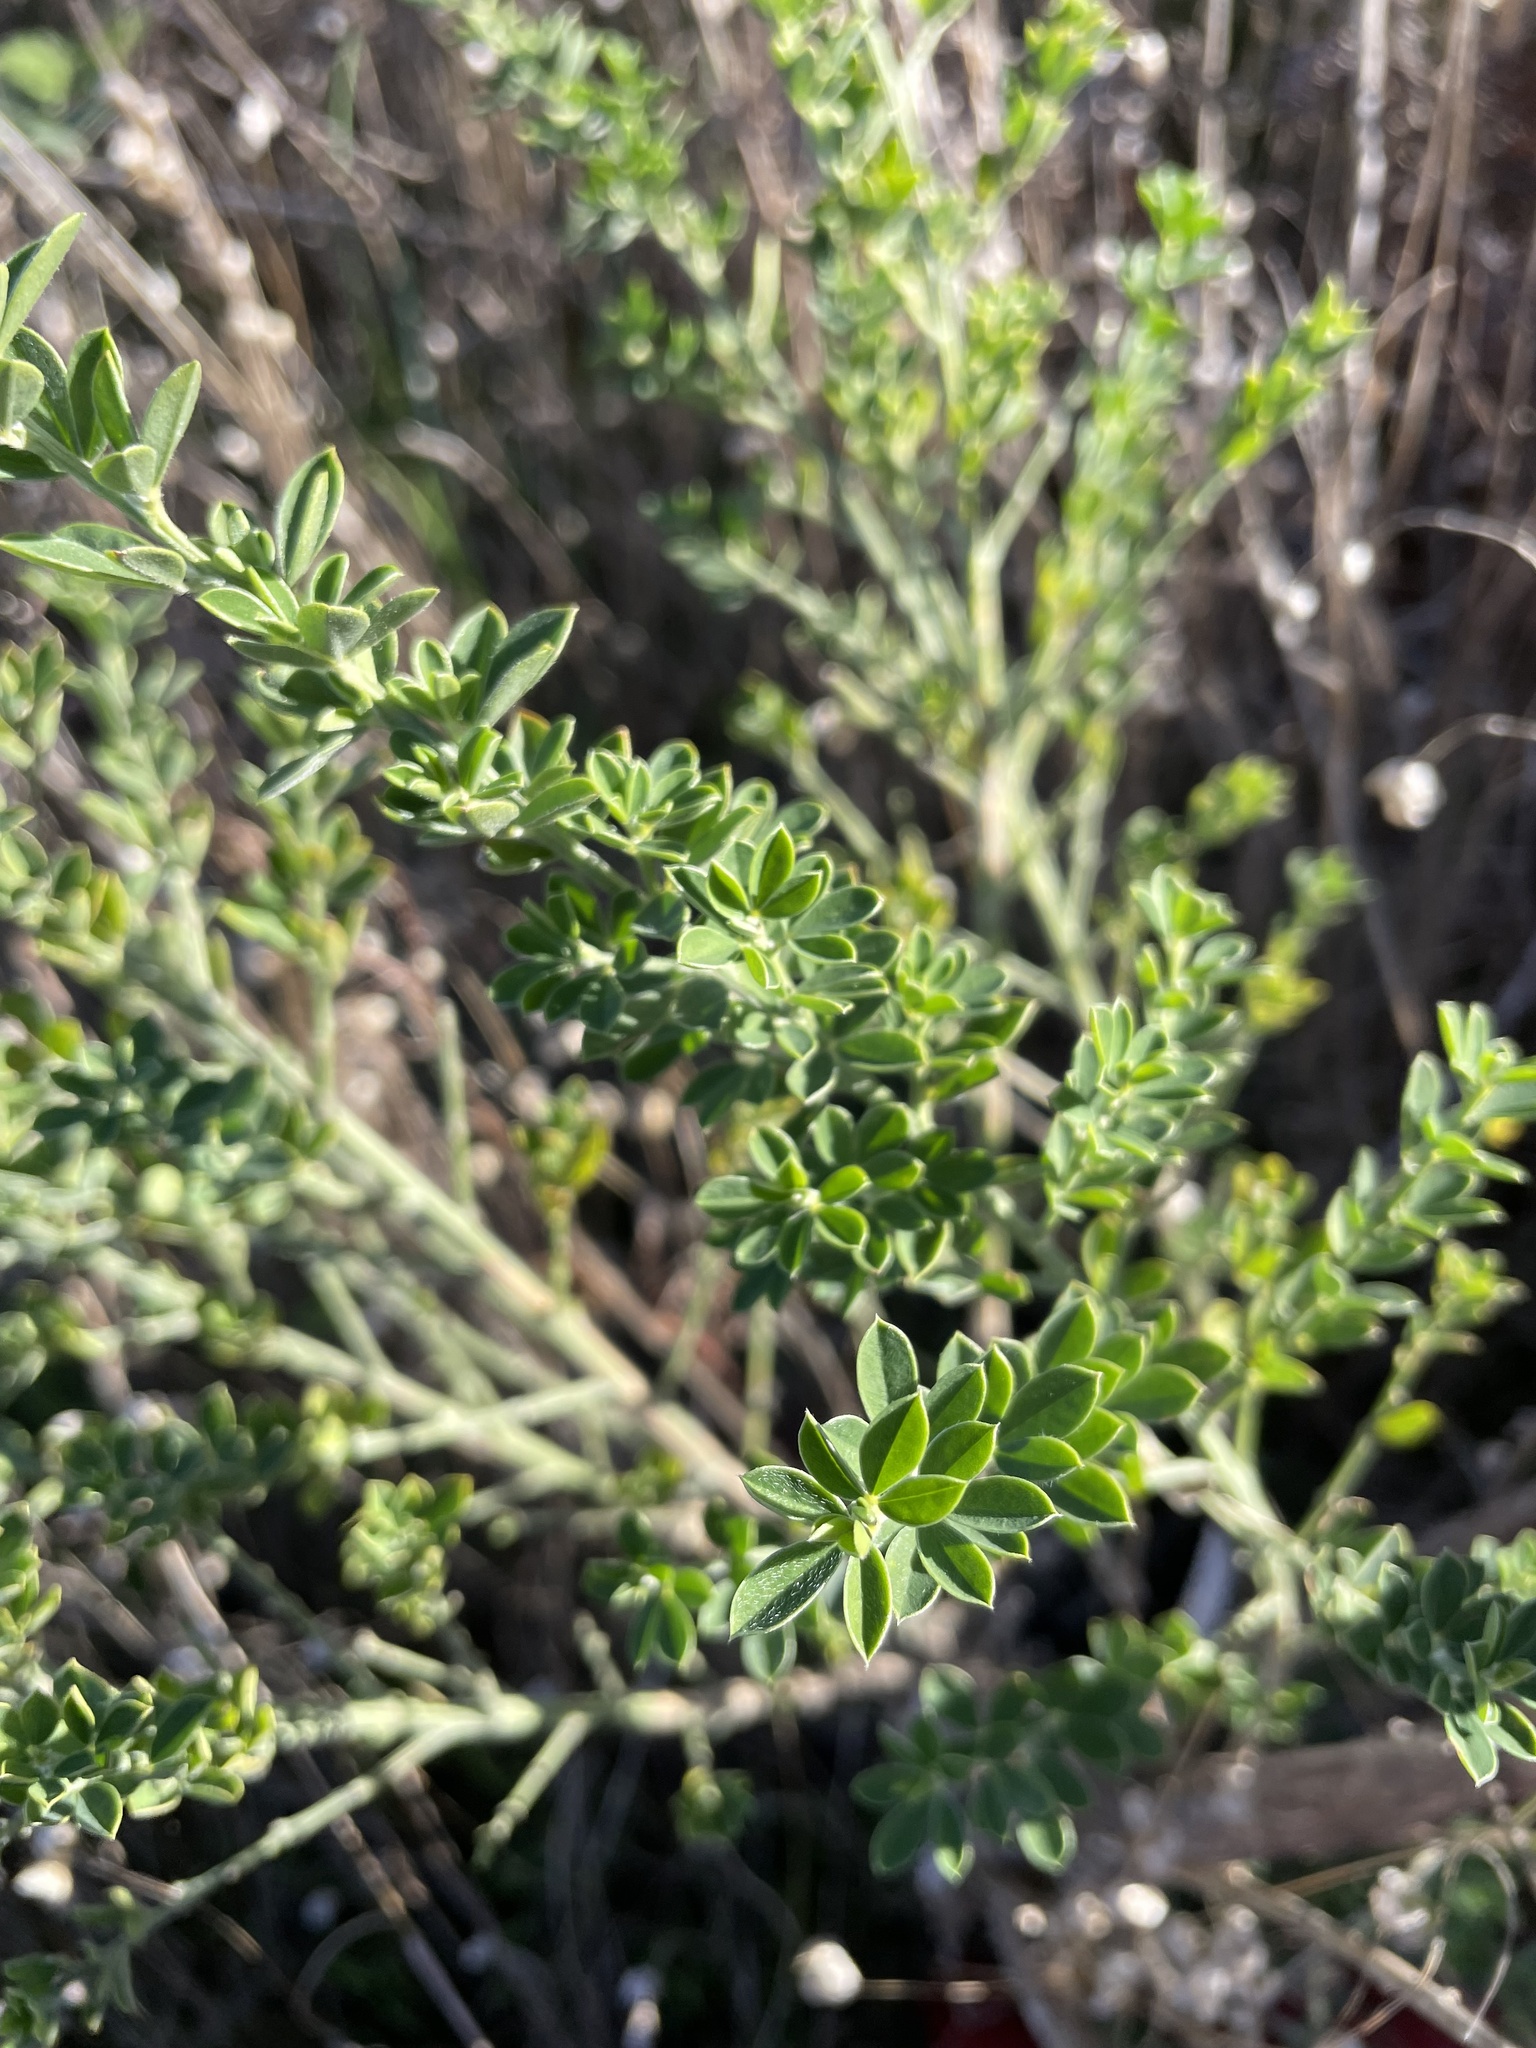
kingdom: Plantae
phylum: Tracheophyta
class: Magnoliopsida
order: Fabales
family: Fabaceae
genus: Genista
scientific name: Genista monspessulana
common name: Montpellier broom
